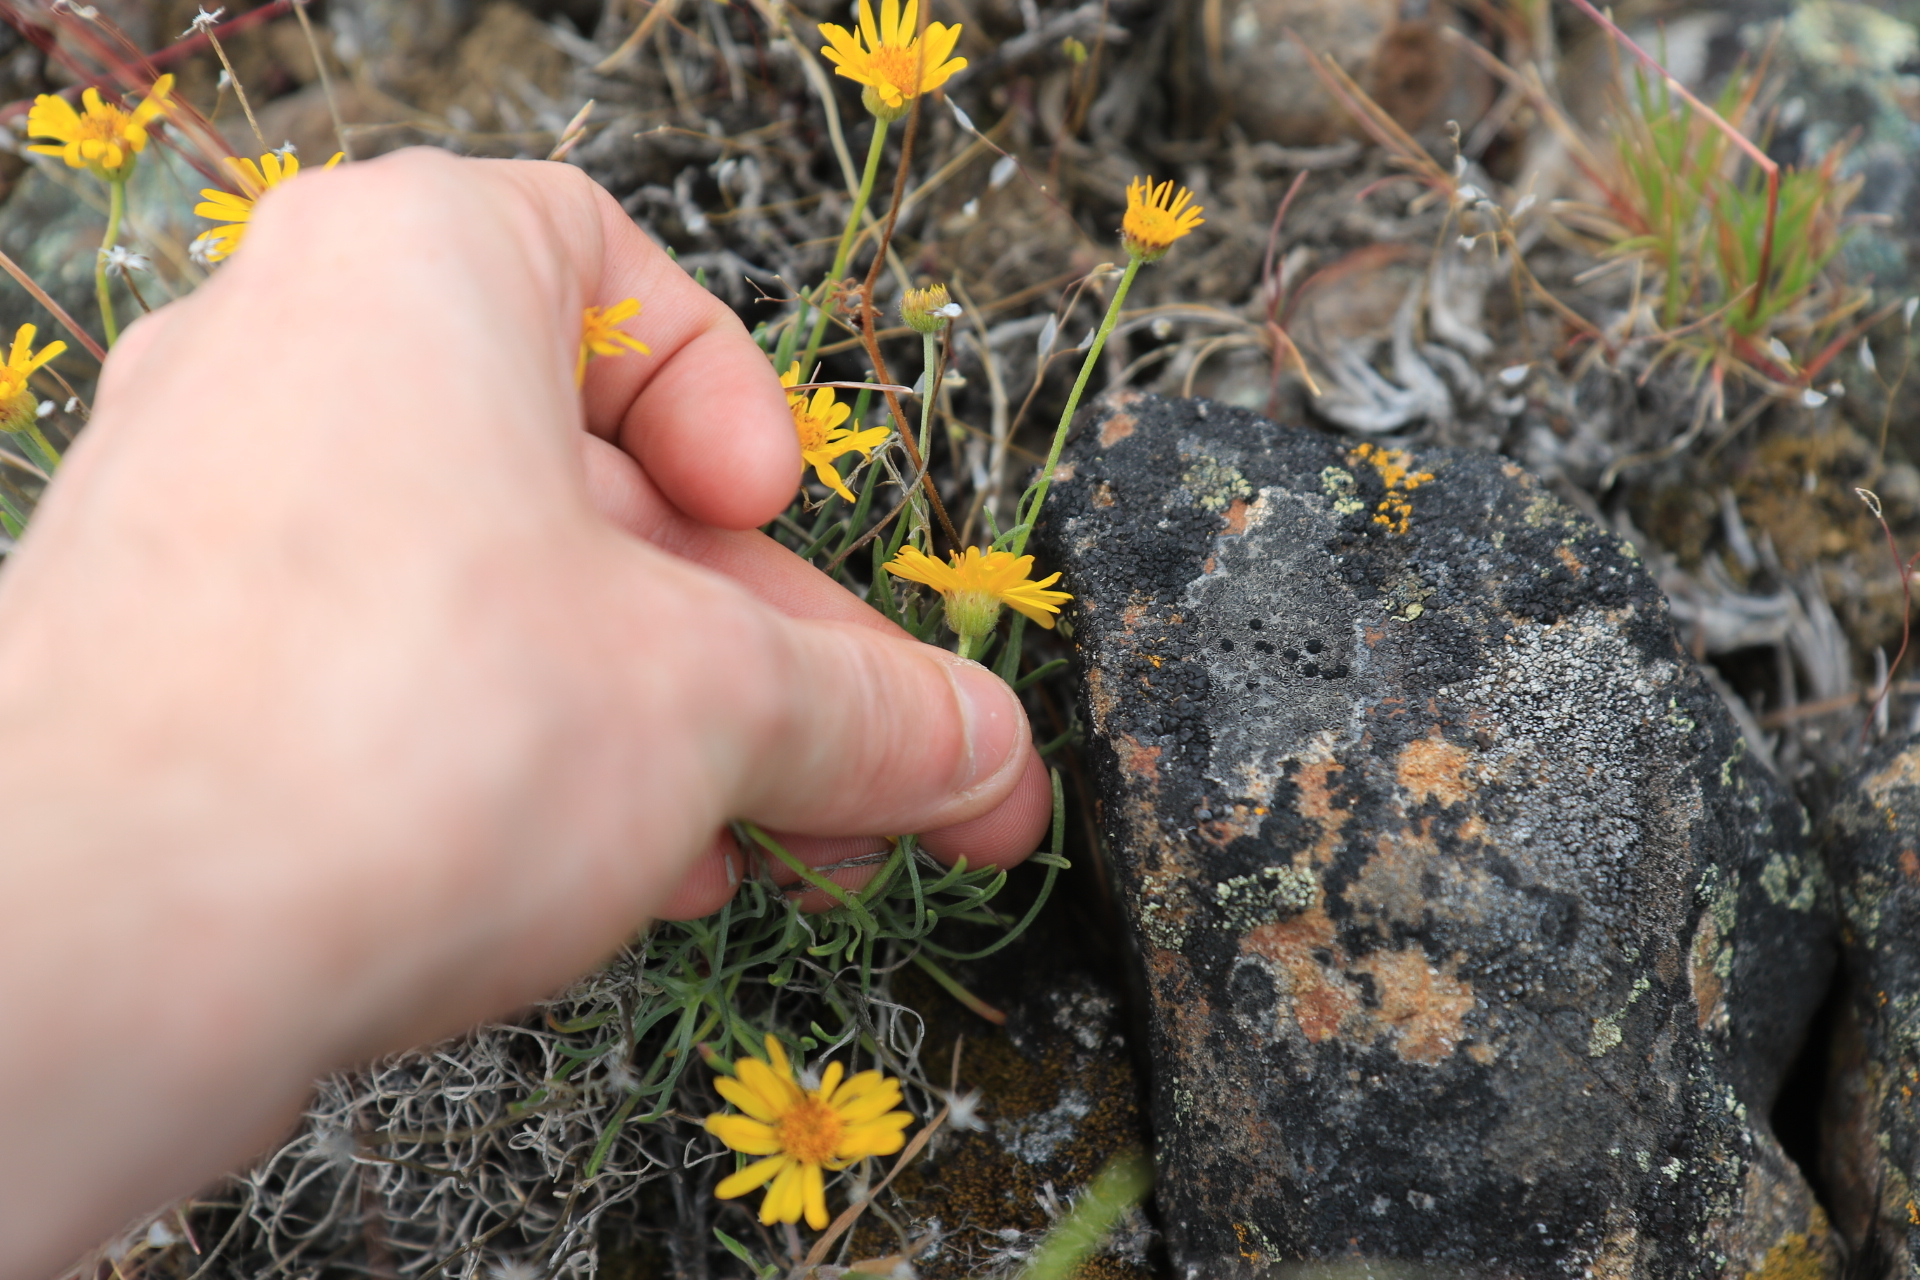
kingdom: Plantae
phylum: Tracheophyta
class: Magnoliopsida
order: Asterales
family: Asteraceae
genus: Erigeron
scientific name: Erigeron linearis
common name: Desert yellow fleabane
